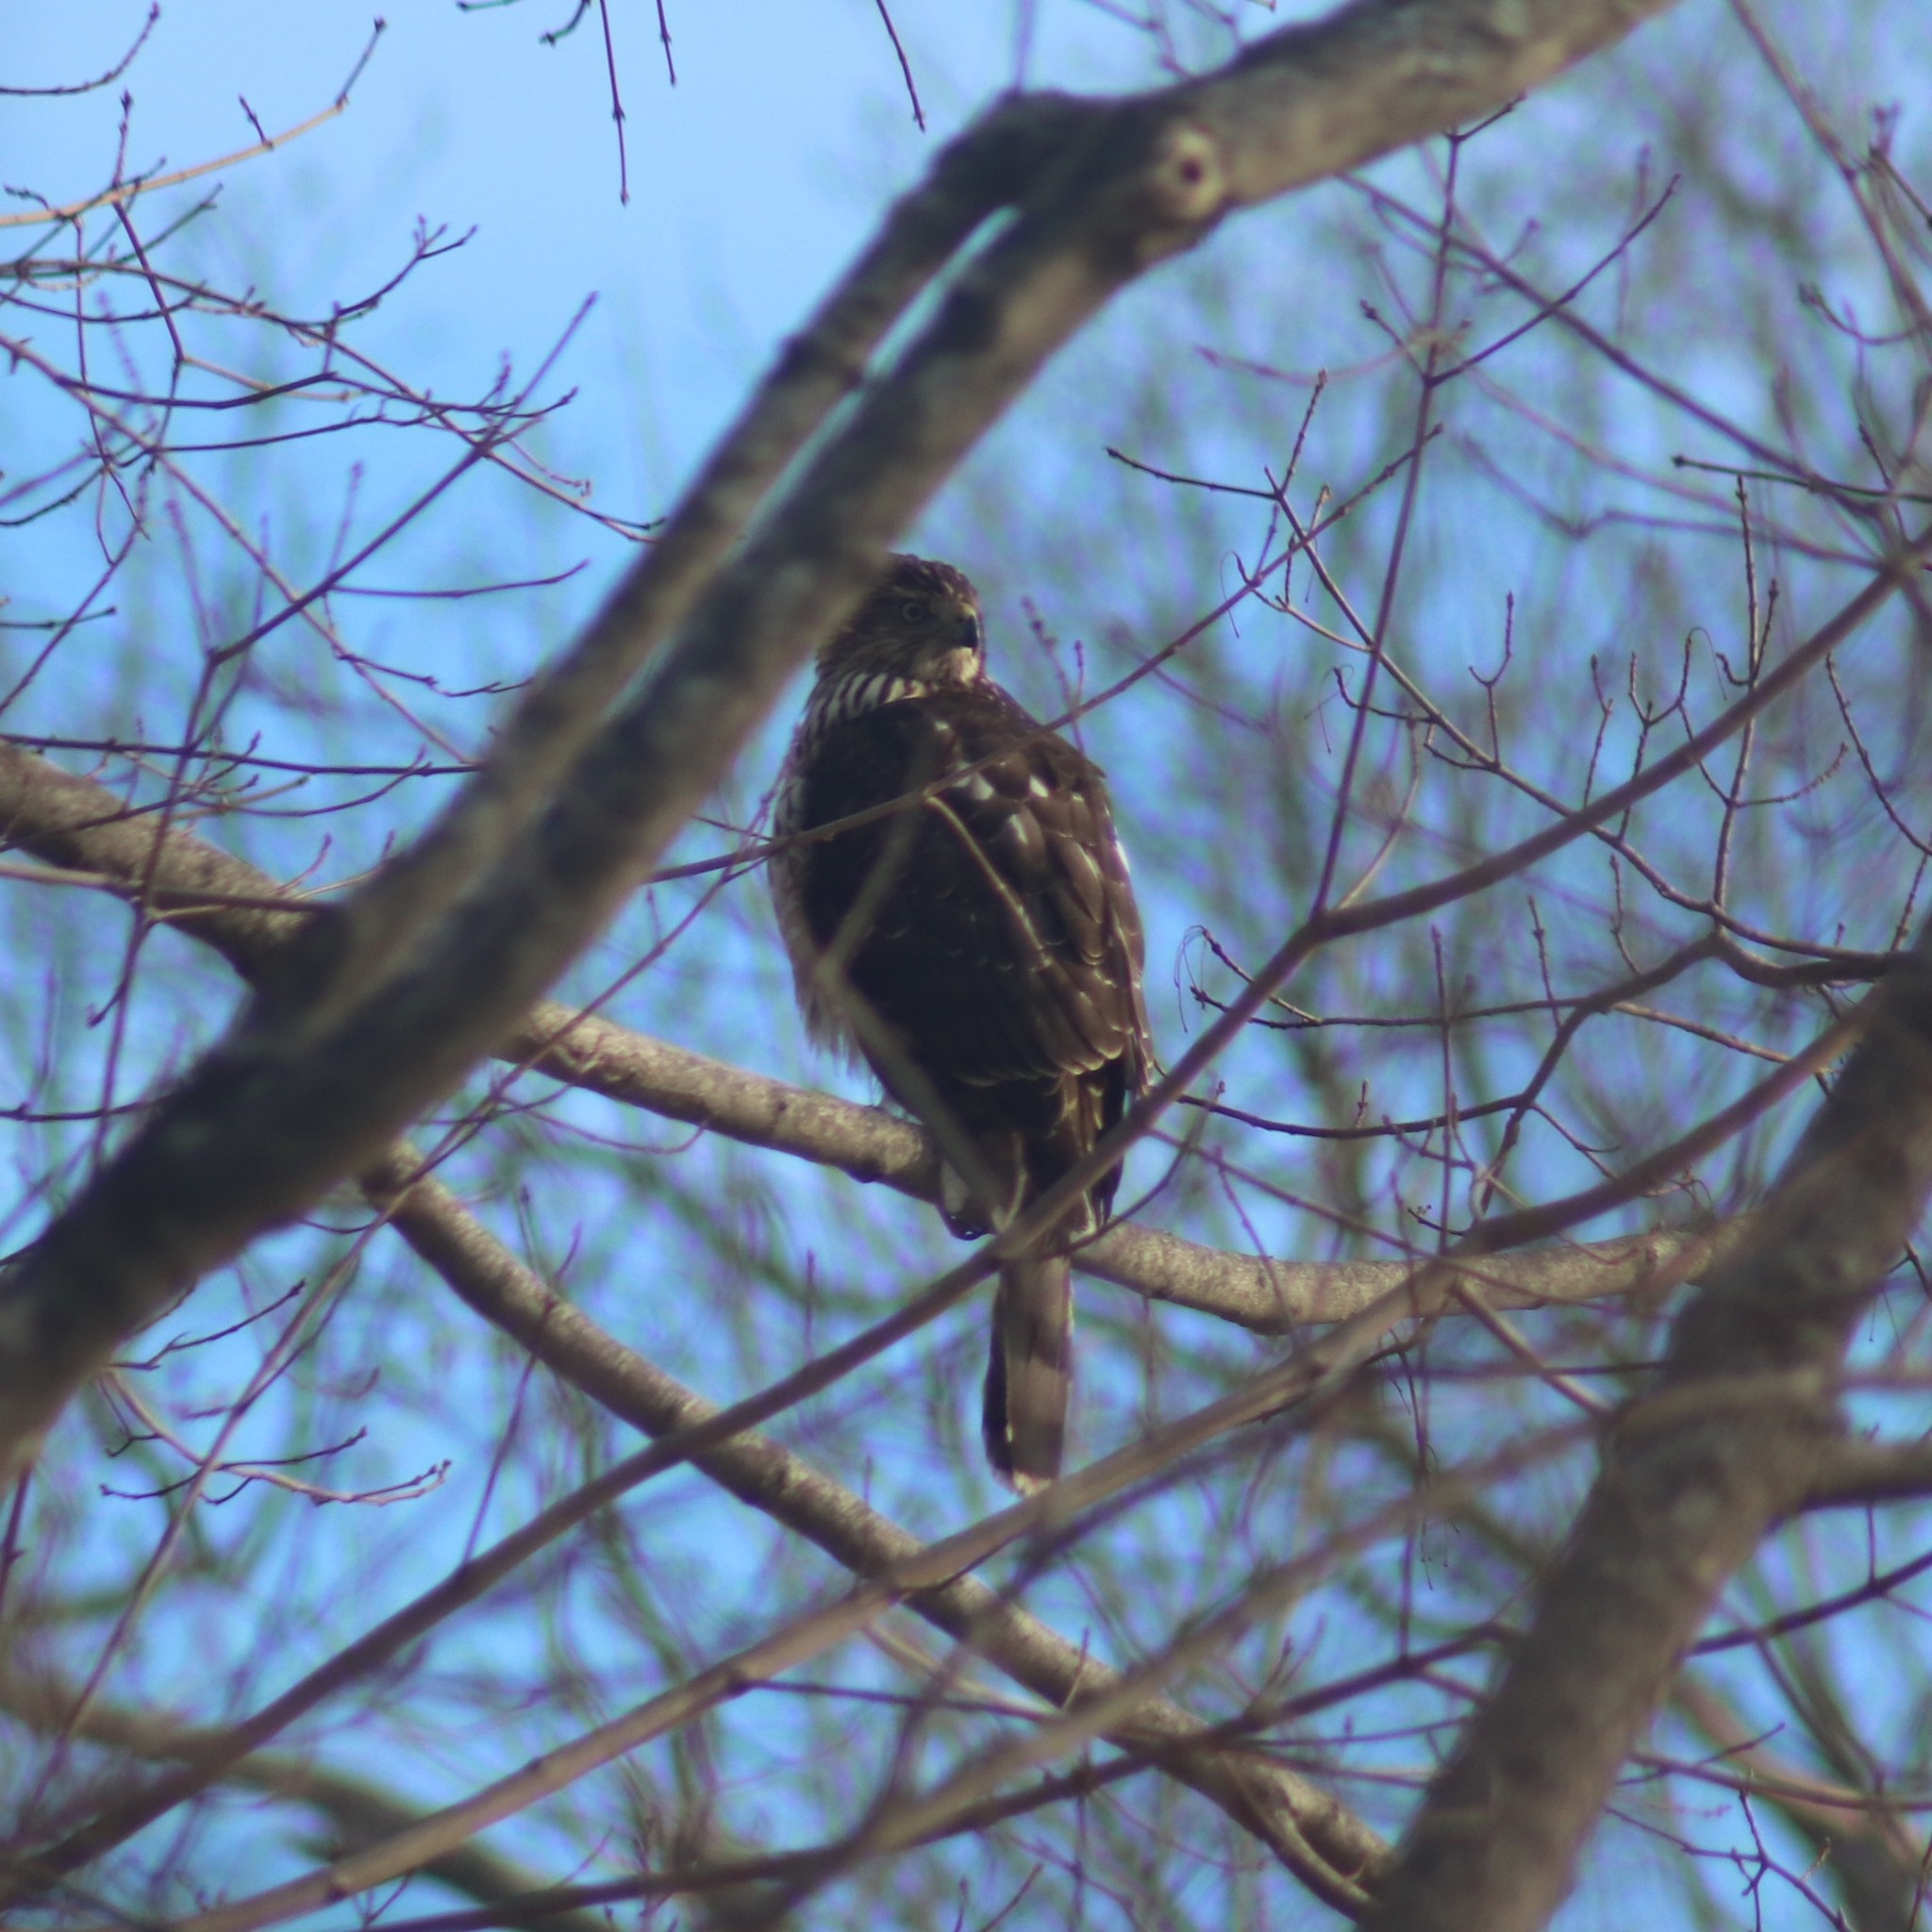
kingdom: Animalia
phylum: Chordata
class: Aves
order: Accipitriformes
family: Accipitridae
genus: Accipiter
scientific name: Accipiter cooperii
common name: Cooper's hawk
